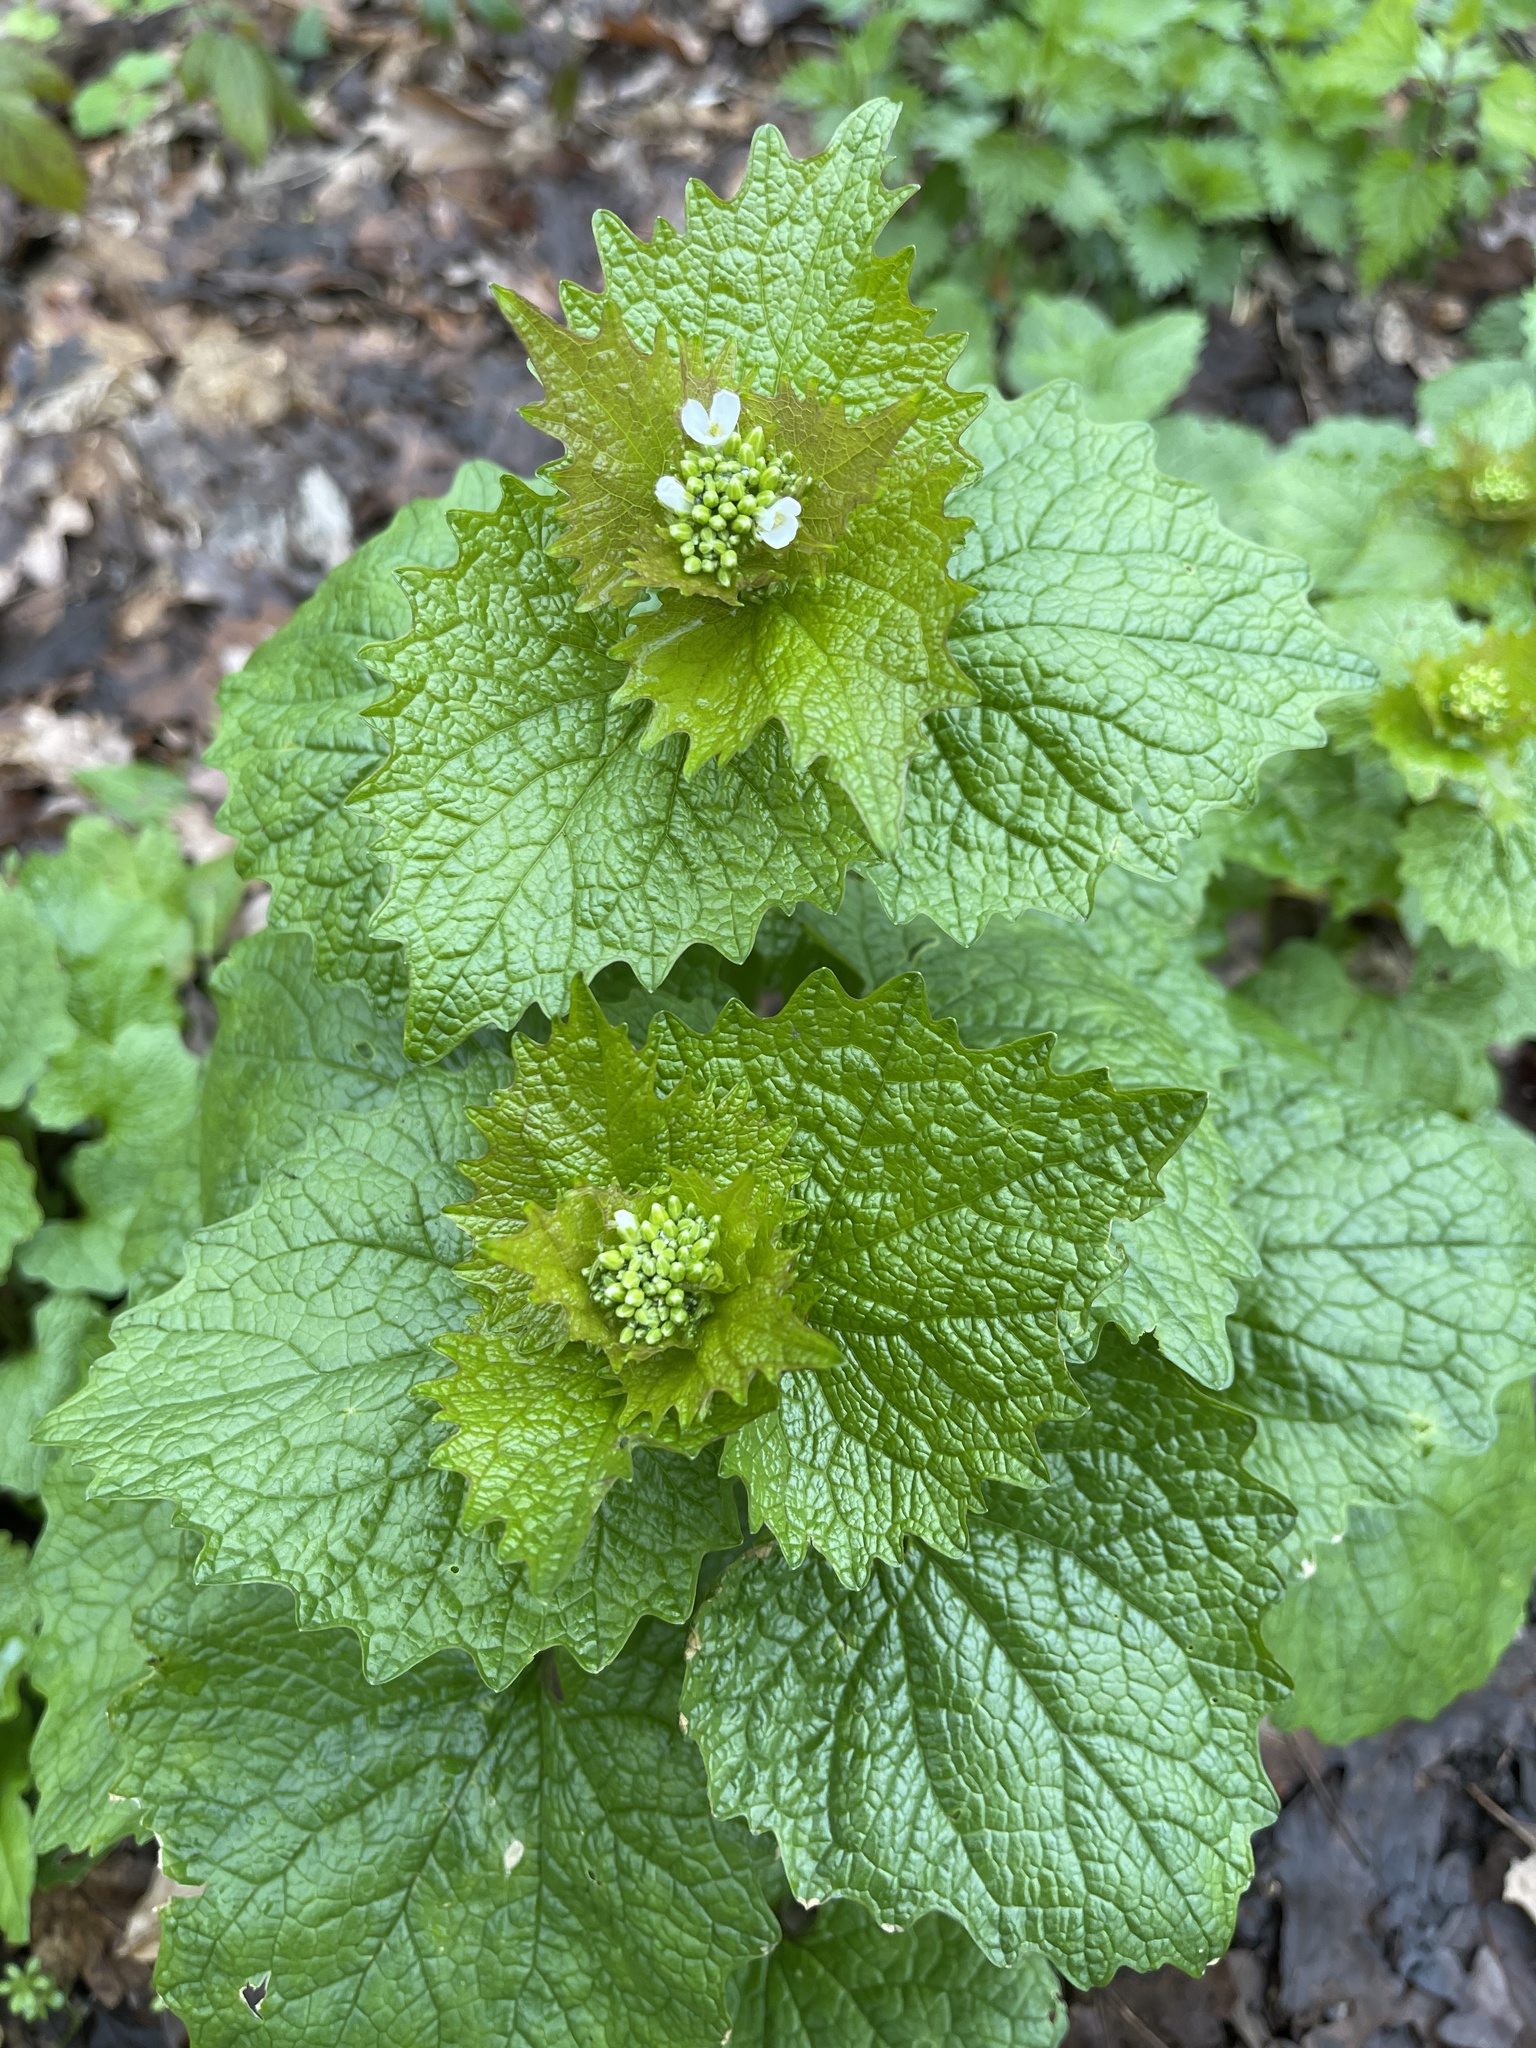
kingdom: Plantae
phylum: Tracheophyta
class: Magnoliopsida
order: Brassicales
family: Brassicaceae
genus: Alliaria
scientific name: Alliaria petiolata
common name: Garlic mustard
